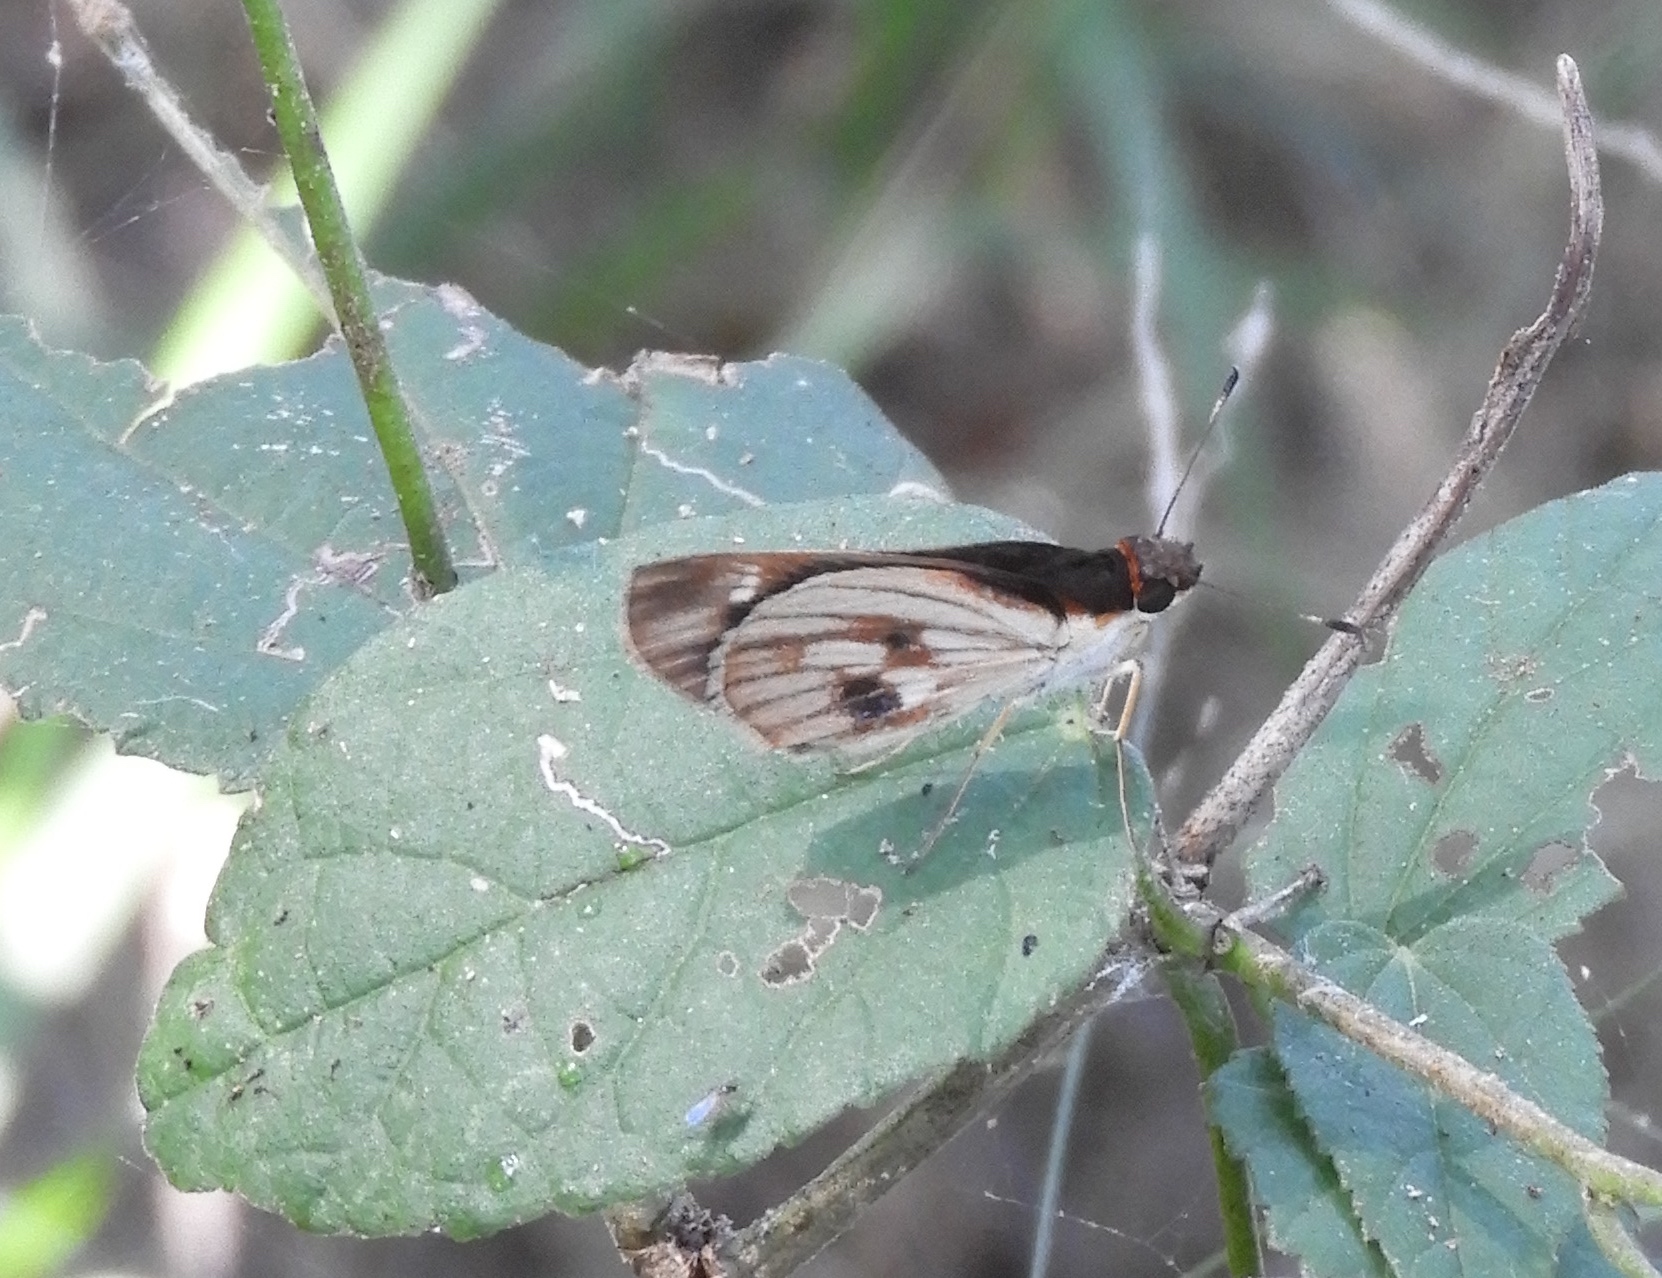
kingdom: Animalia
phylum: Arthropoda
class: Insecta
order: Lepidoptera
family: Hesperiidae
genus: Troyus
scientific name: Troyus fantasos
